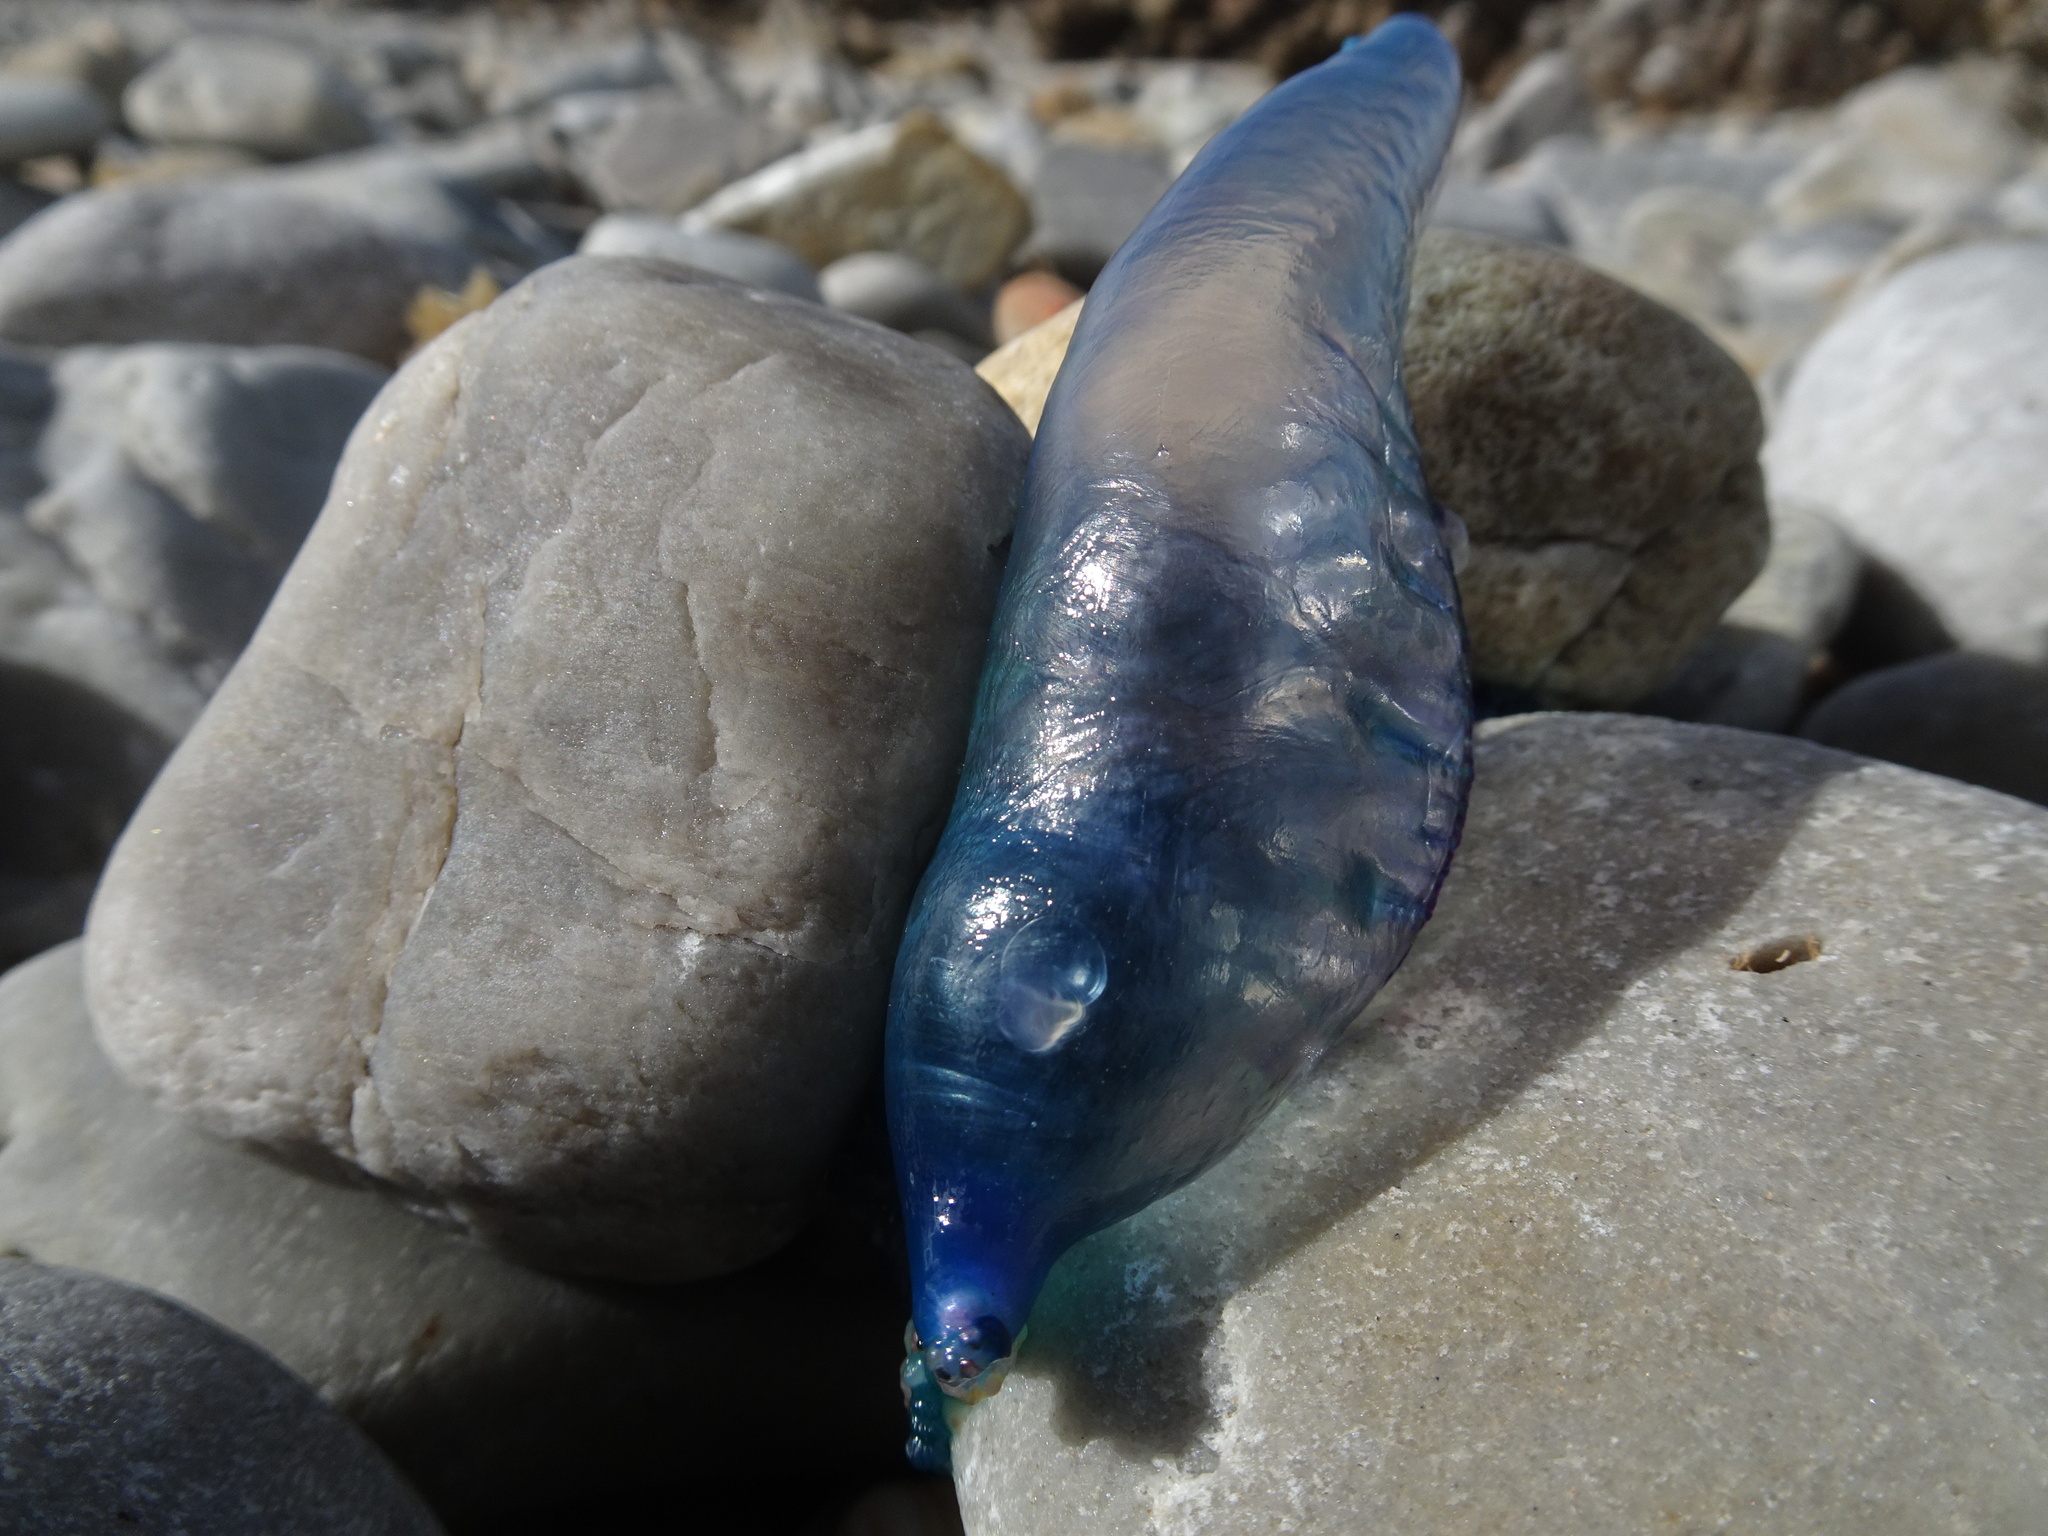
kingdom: Animalia
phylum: Cnidaria
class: Hydrozoa
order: Siphonophorae
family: Physaliidae
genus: Physalia
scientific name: Physalia physalis
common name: Portuguese man-of-war
